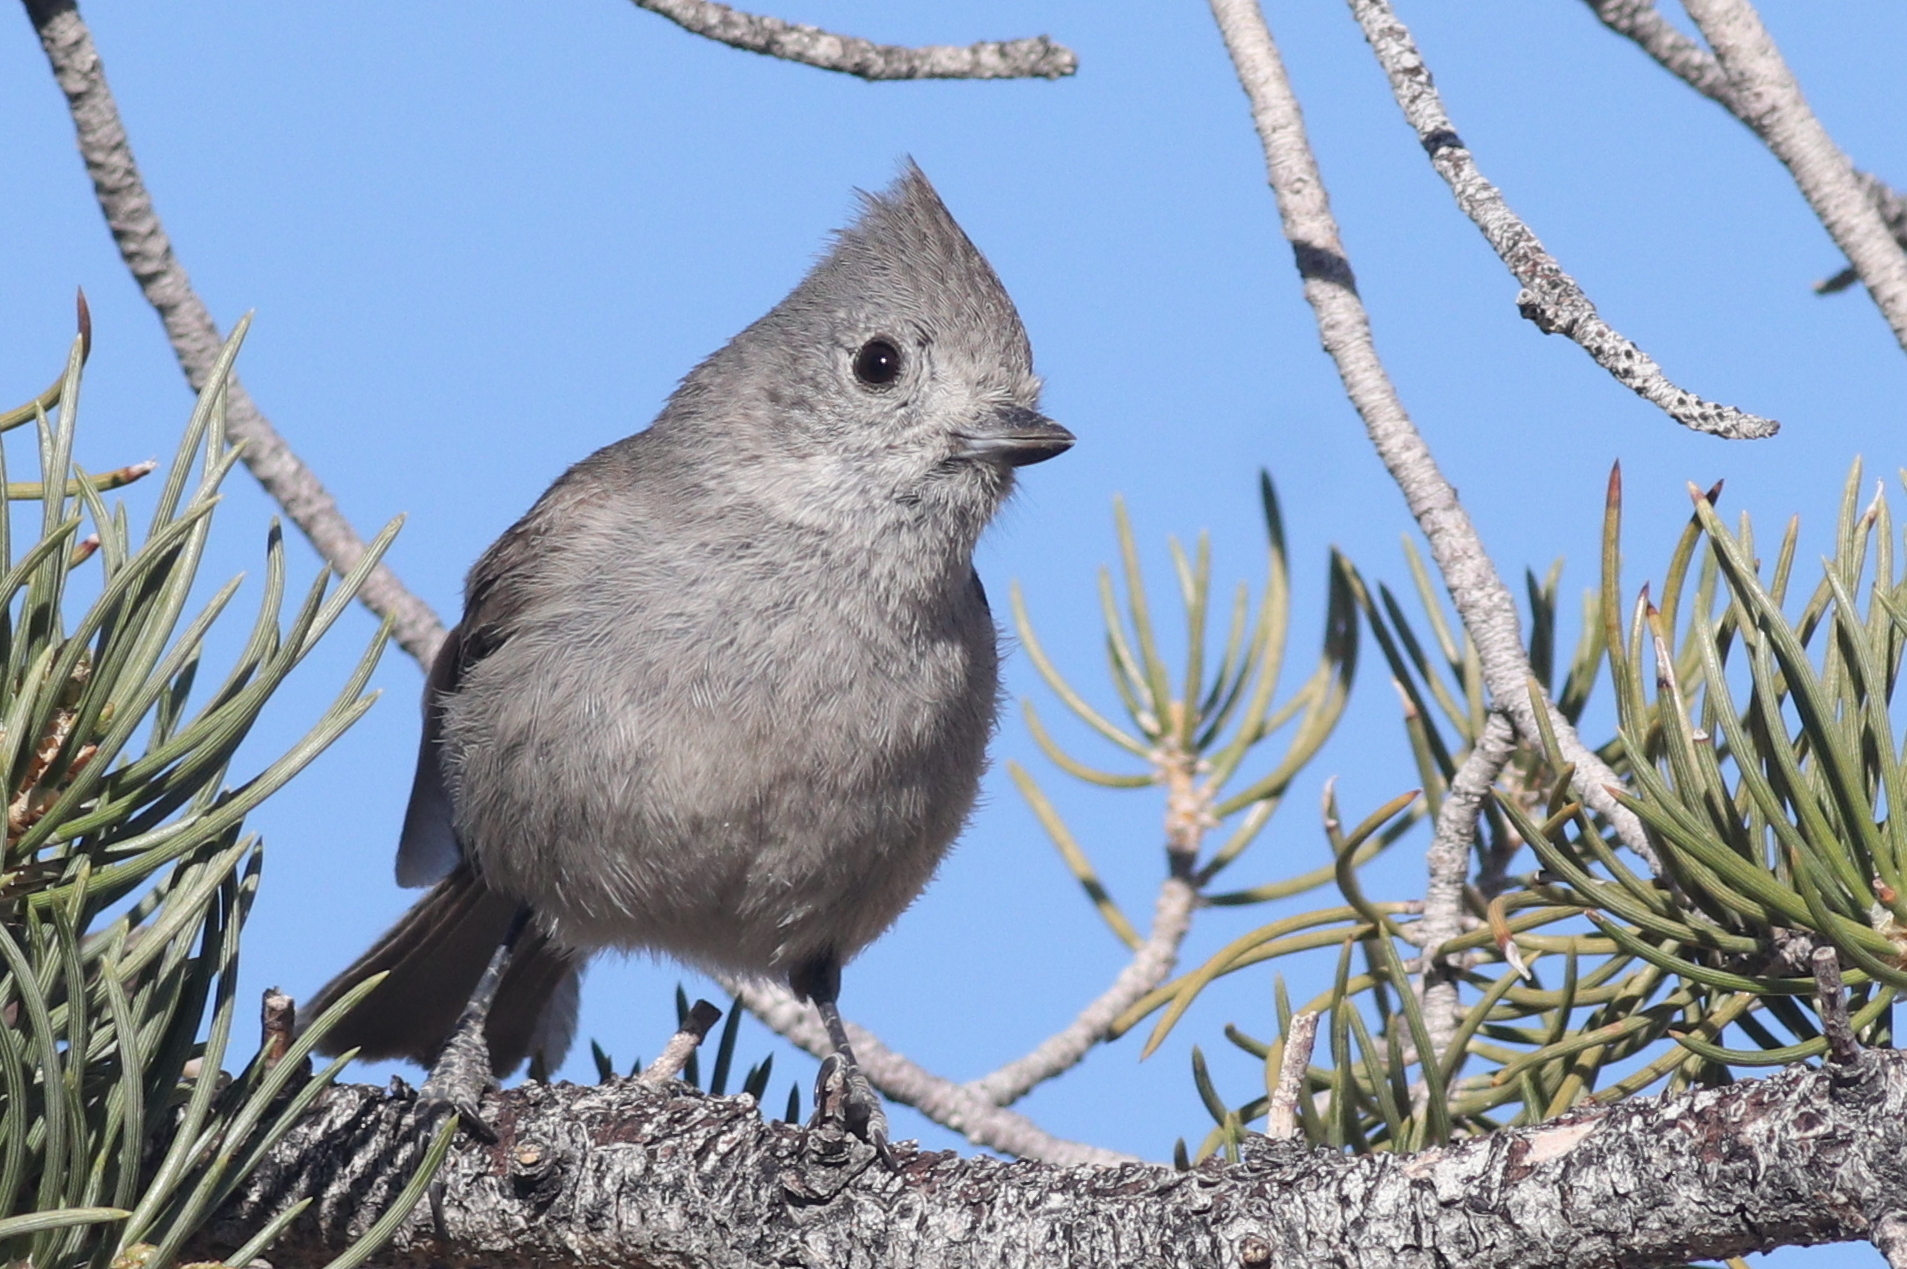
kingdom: Animalia
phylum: Chordata
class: Aves
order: Passeriformes
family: Paridae
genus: Baeolophus
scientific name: Baeolophus inornatus
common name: Oak titmouse
